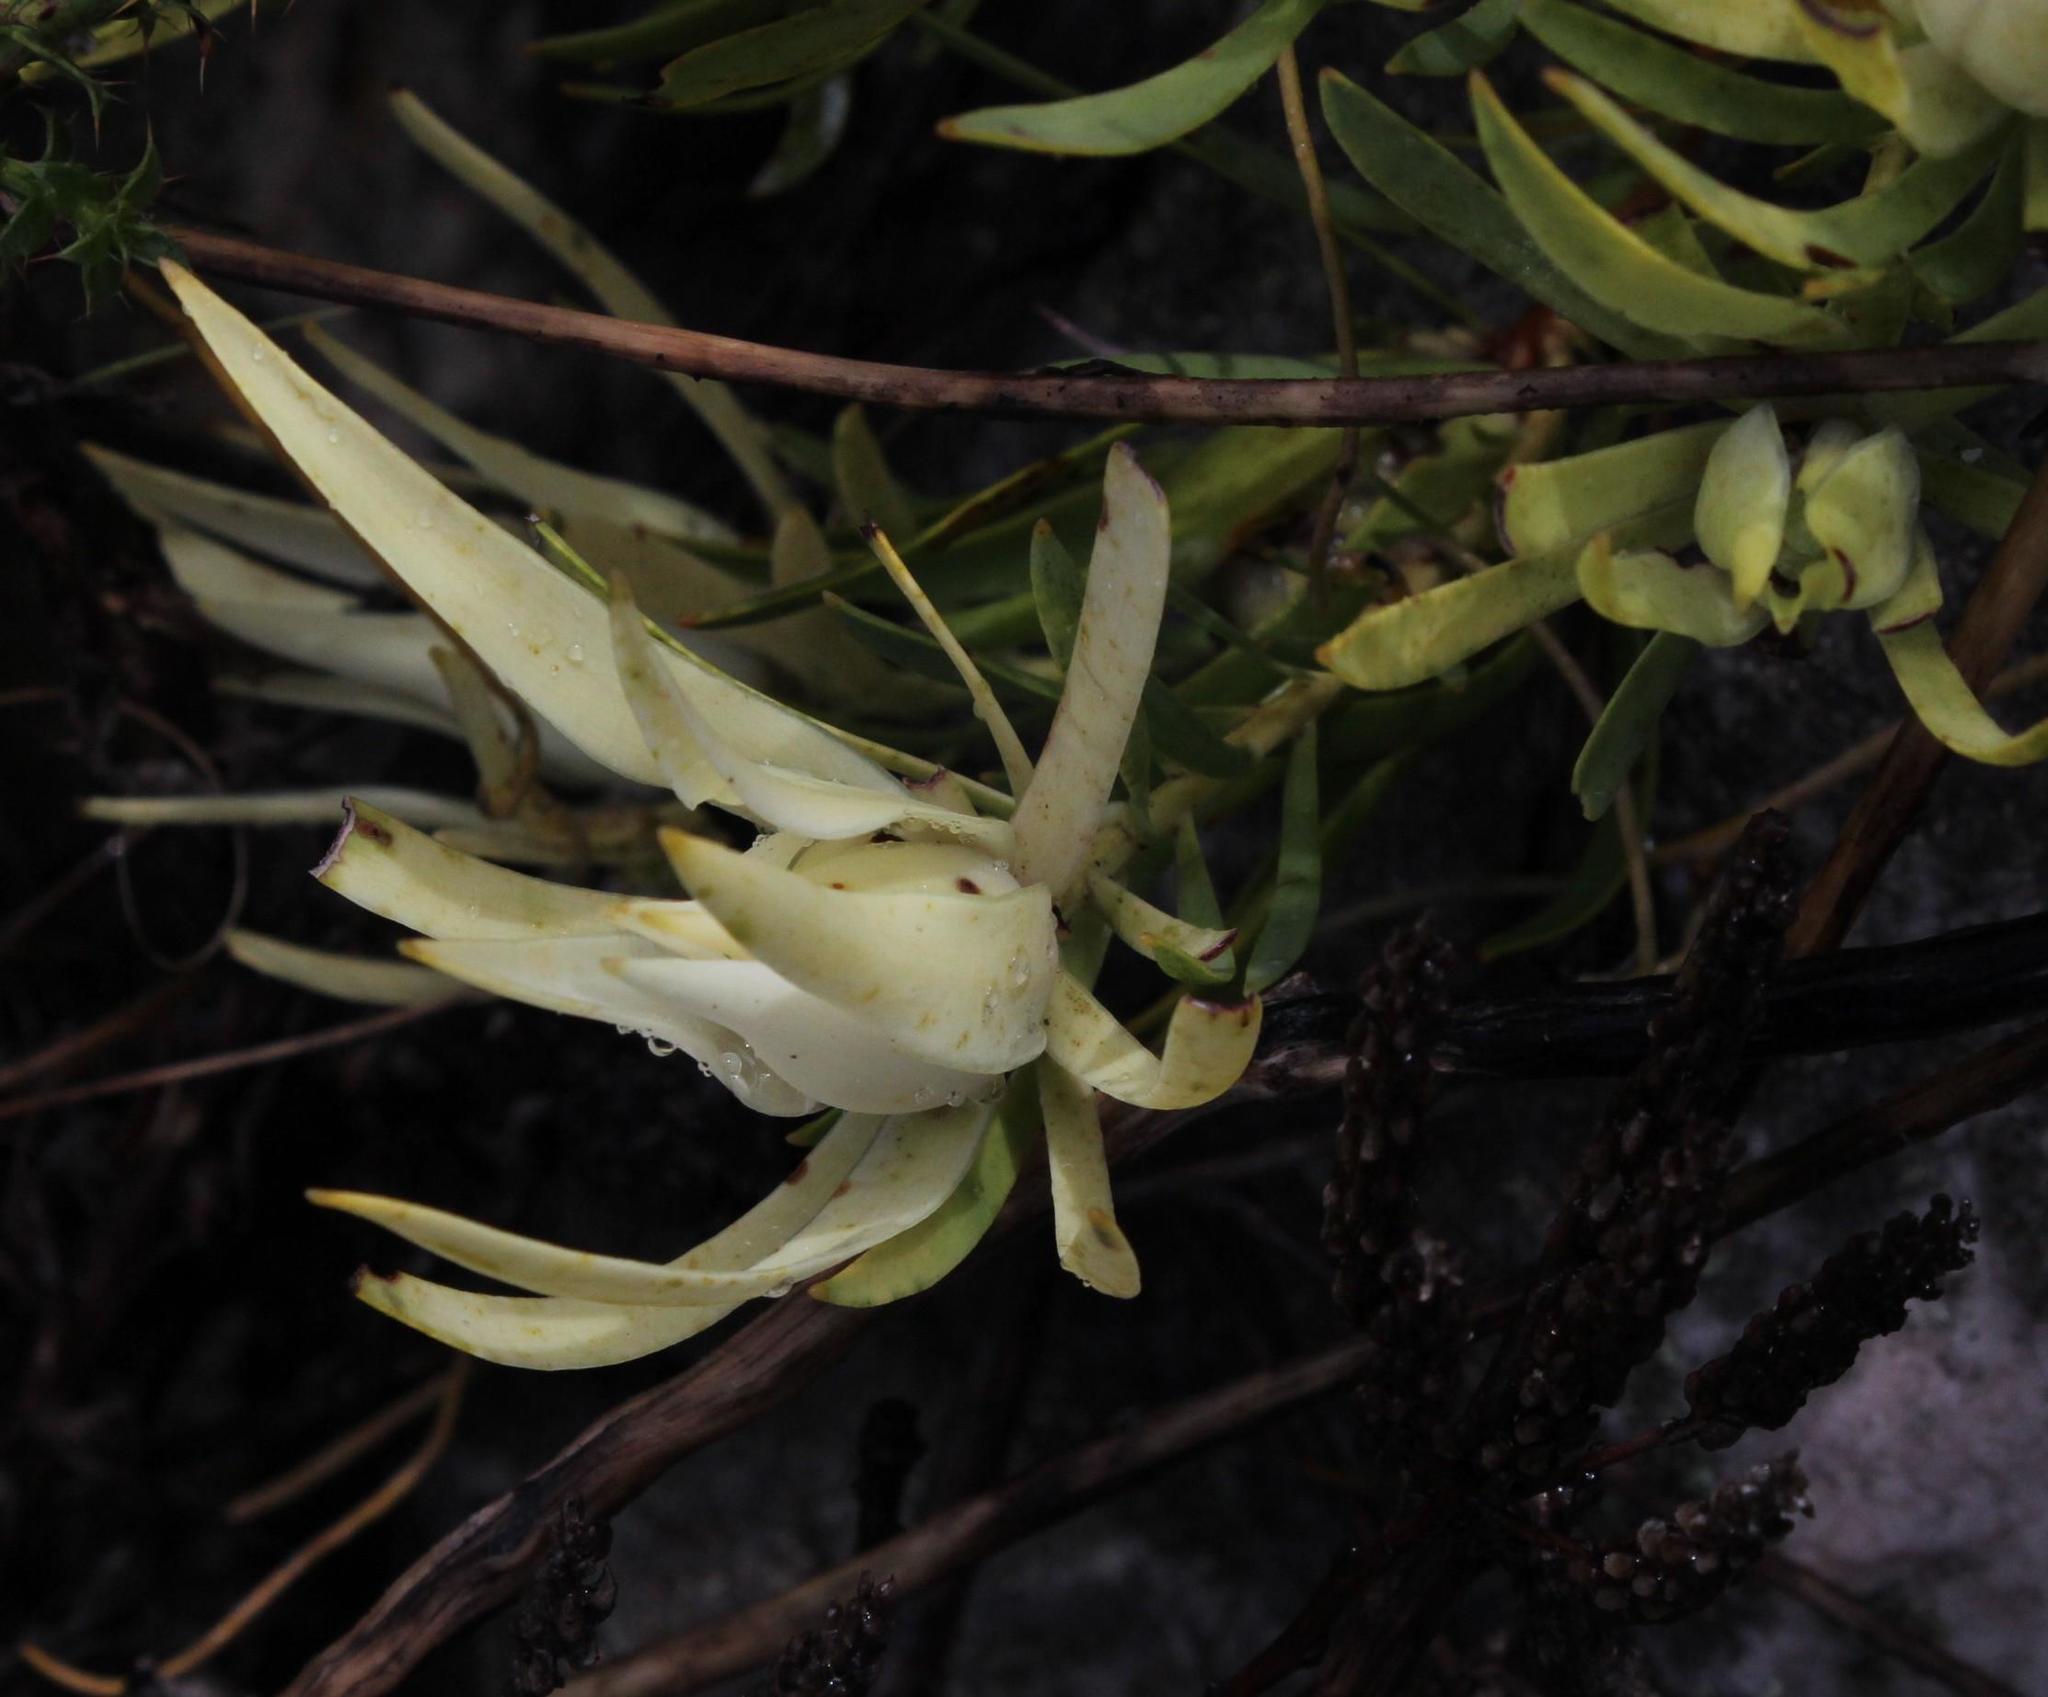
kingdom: Plantae
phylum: Tracheophyta
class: Magnoliopsida
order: Proteales
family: Proteaceae
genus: Leucadendron
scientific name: Leucadendron salignum
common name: Common sunshine conebush
